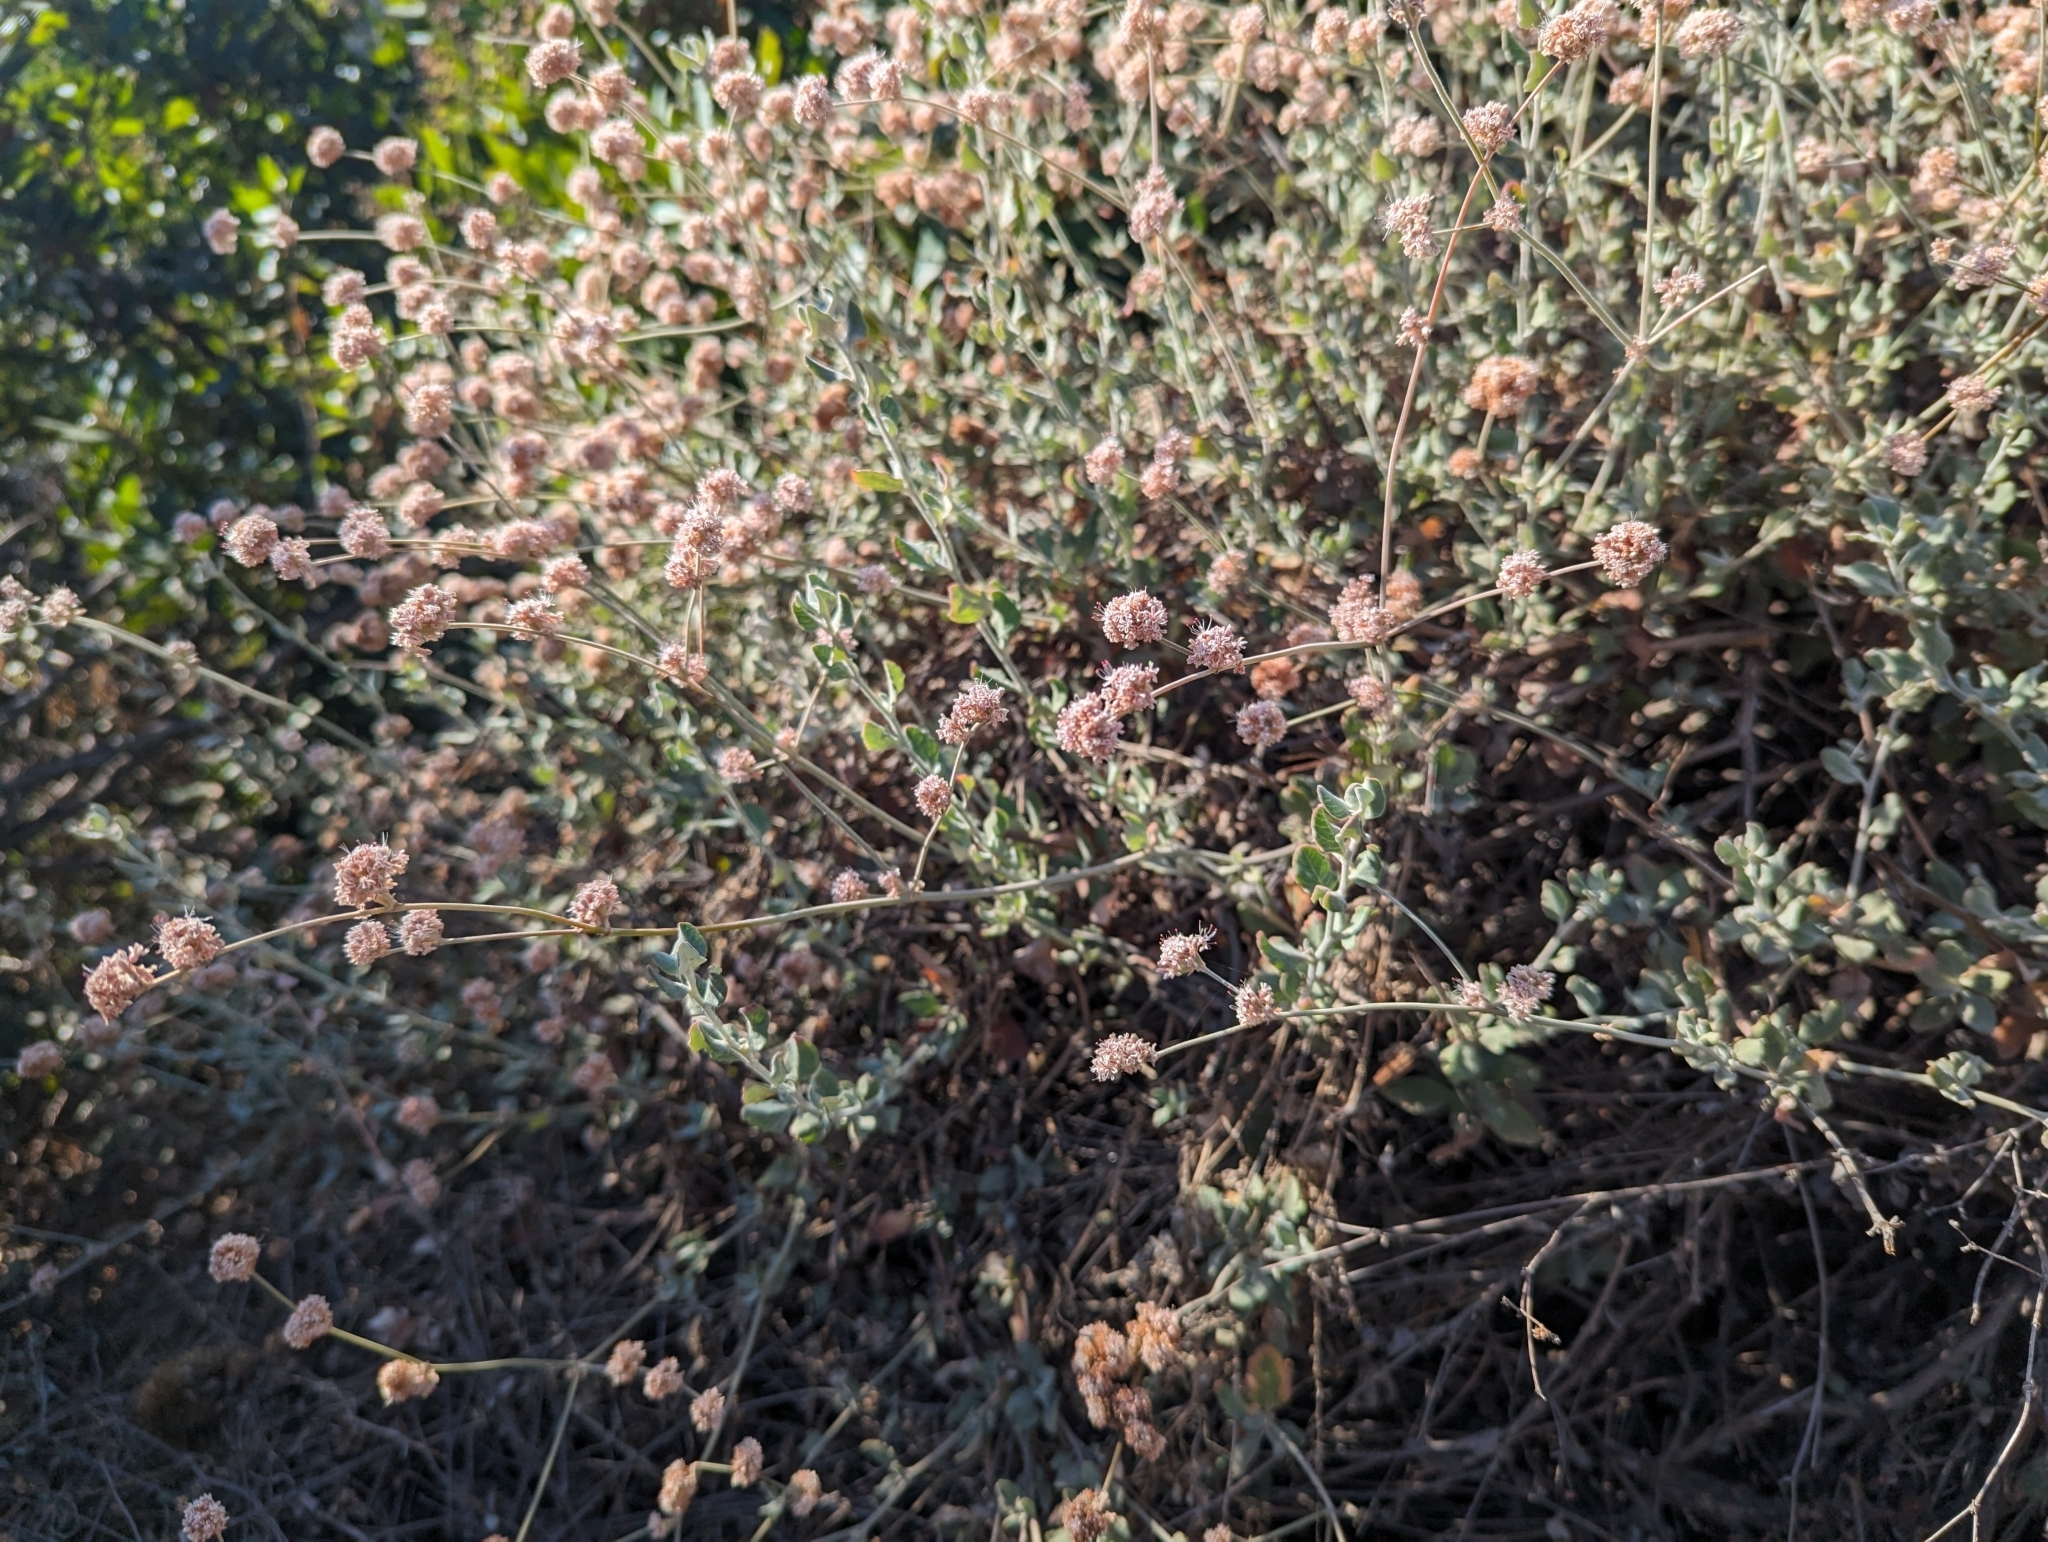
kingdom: Plantae
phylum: Tracheophyta
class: Magnoliopsida
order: Caryophyllales
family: Polygonaceae
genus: Eriogonum
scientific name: Eriogonum cinereum
